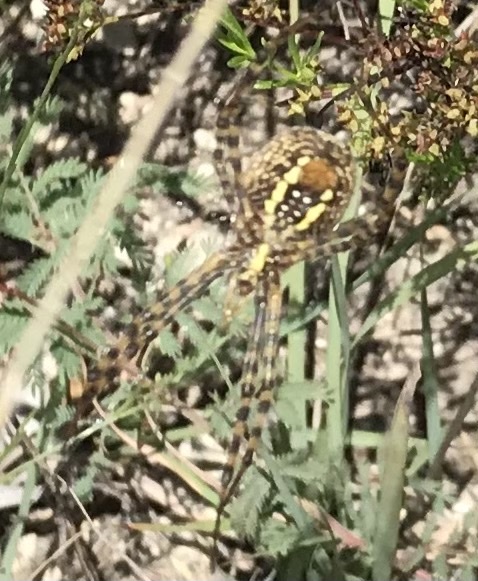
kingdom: Animalia
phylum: Arthropoda
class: Arachnida
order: Araneae
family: Araneidae
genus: Argiope
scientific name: Argiope trifasciata
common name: Banded garden spider
